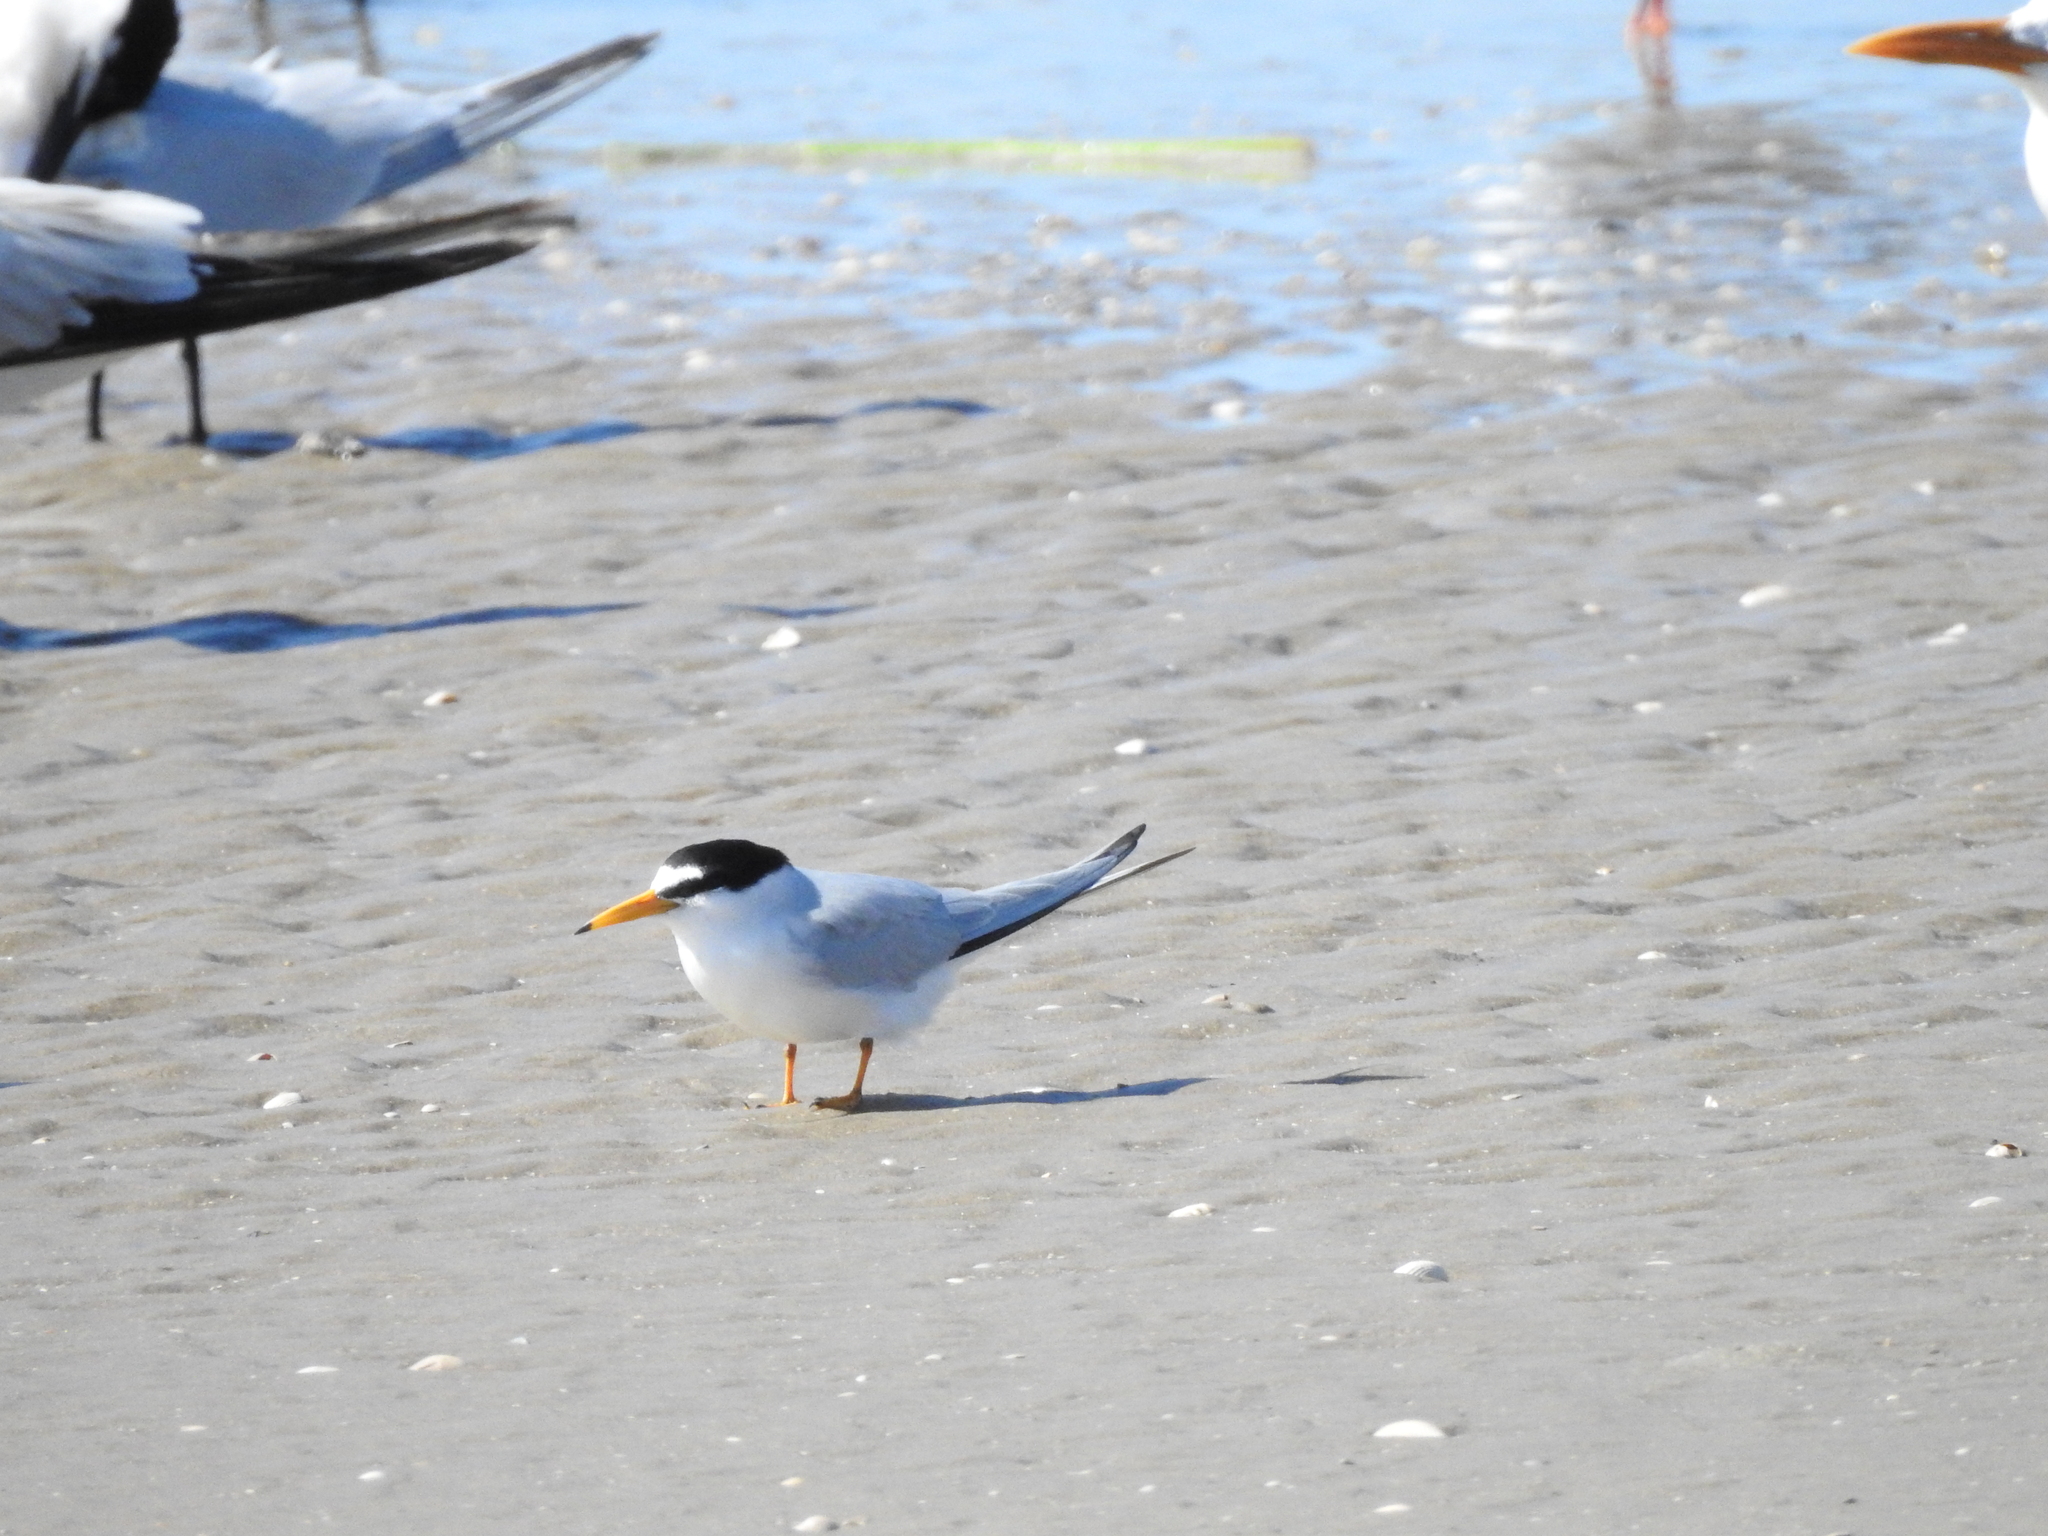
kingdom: Animalia
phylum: Chordata
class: Aves
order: Charadriiformes
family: Laridae
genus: Sternula
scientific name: Sternula antillarum
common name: Least tern
